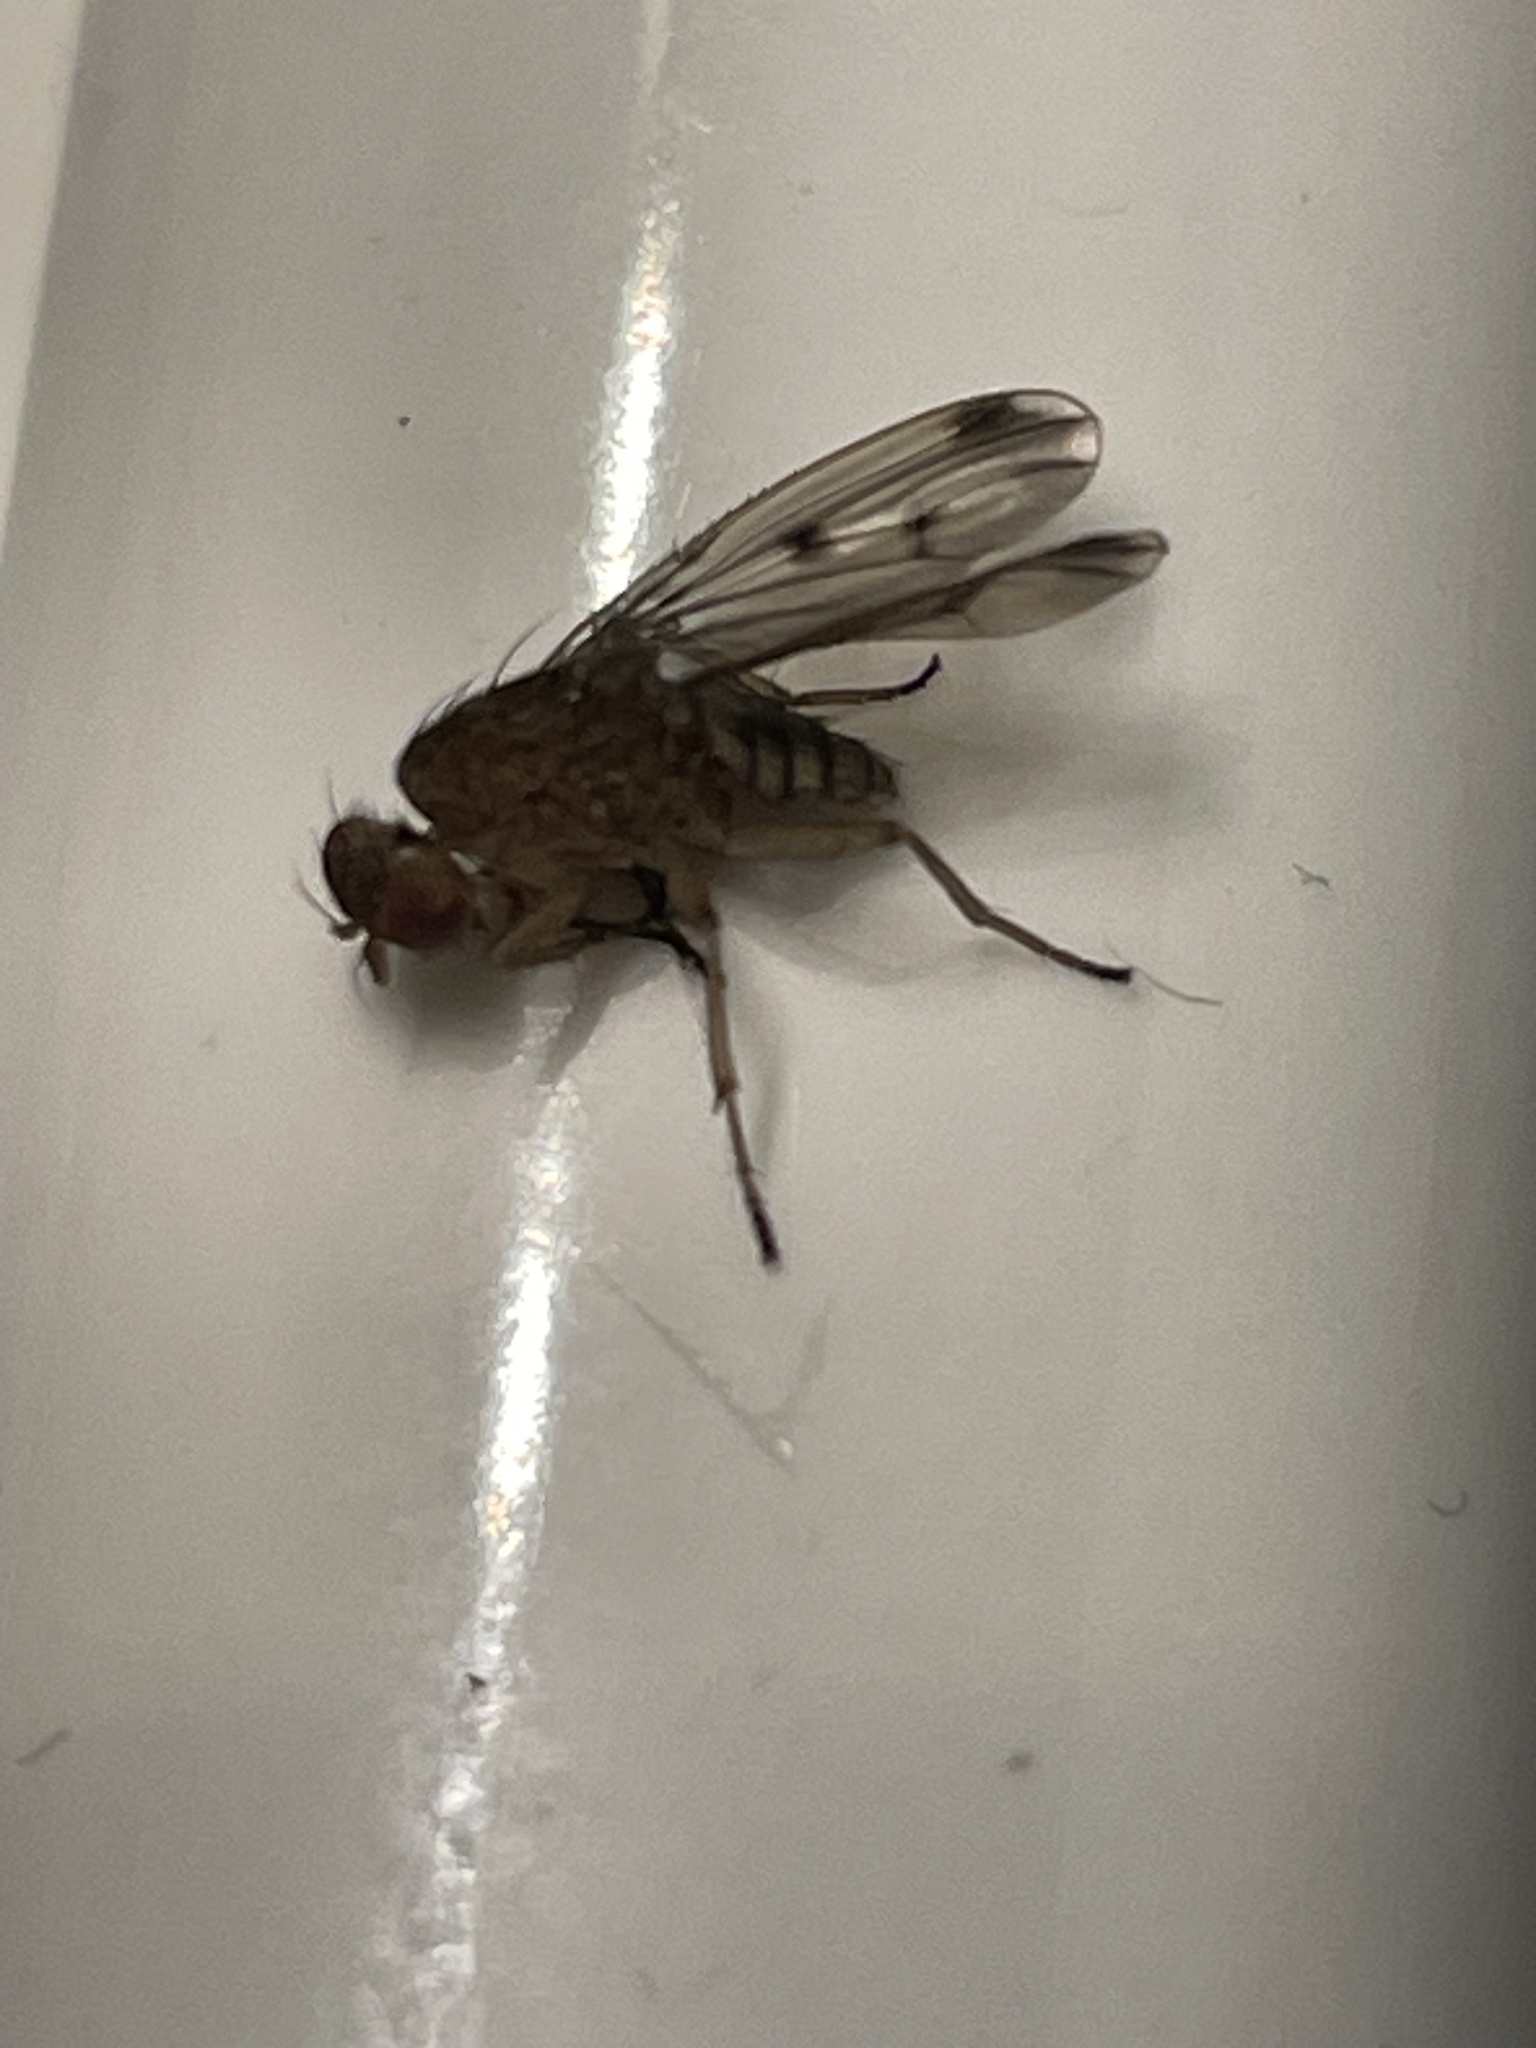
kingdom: Animalia
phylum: Arthropoda
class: Insecta
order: Diptera
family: Heleomyzidae
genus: Suillia
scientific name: Suillia variegata
